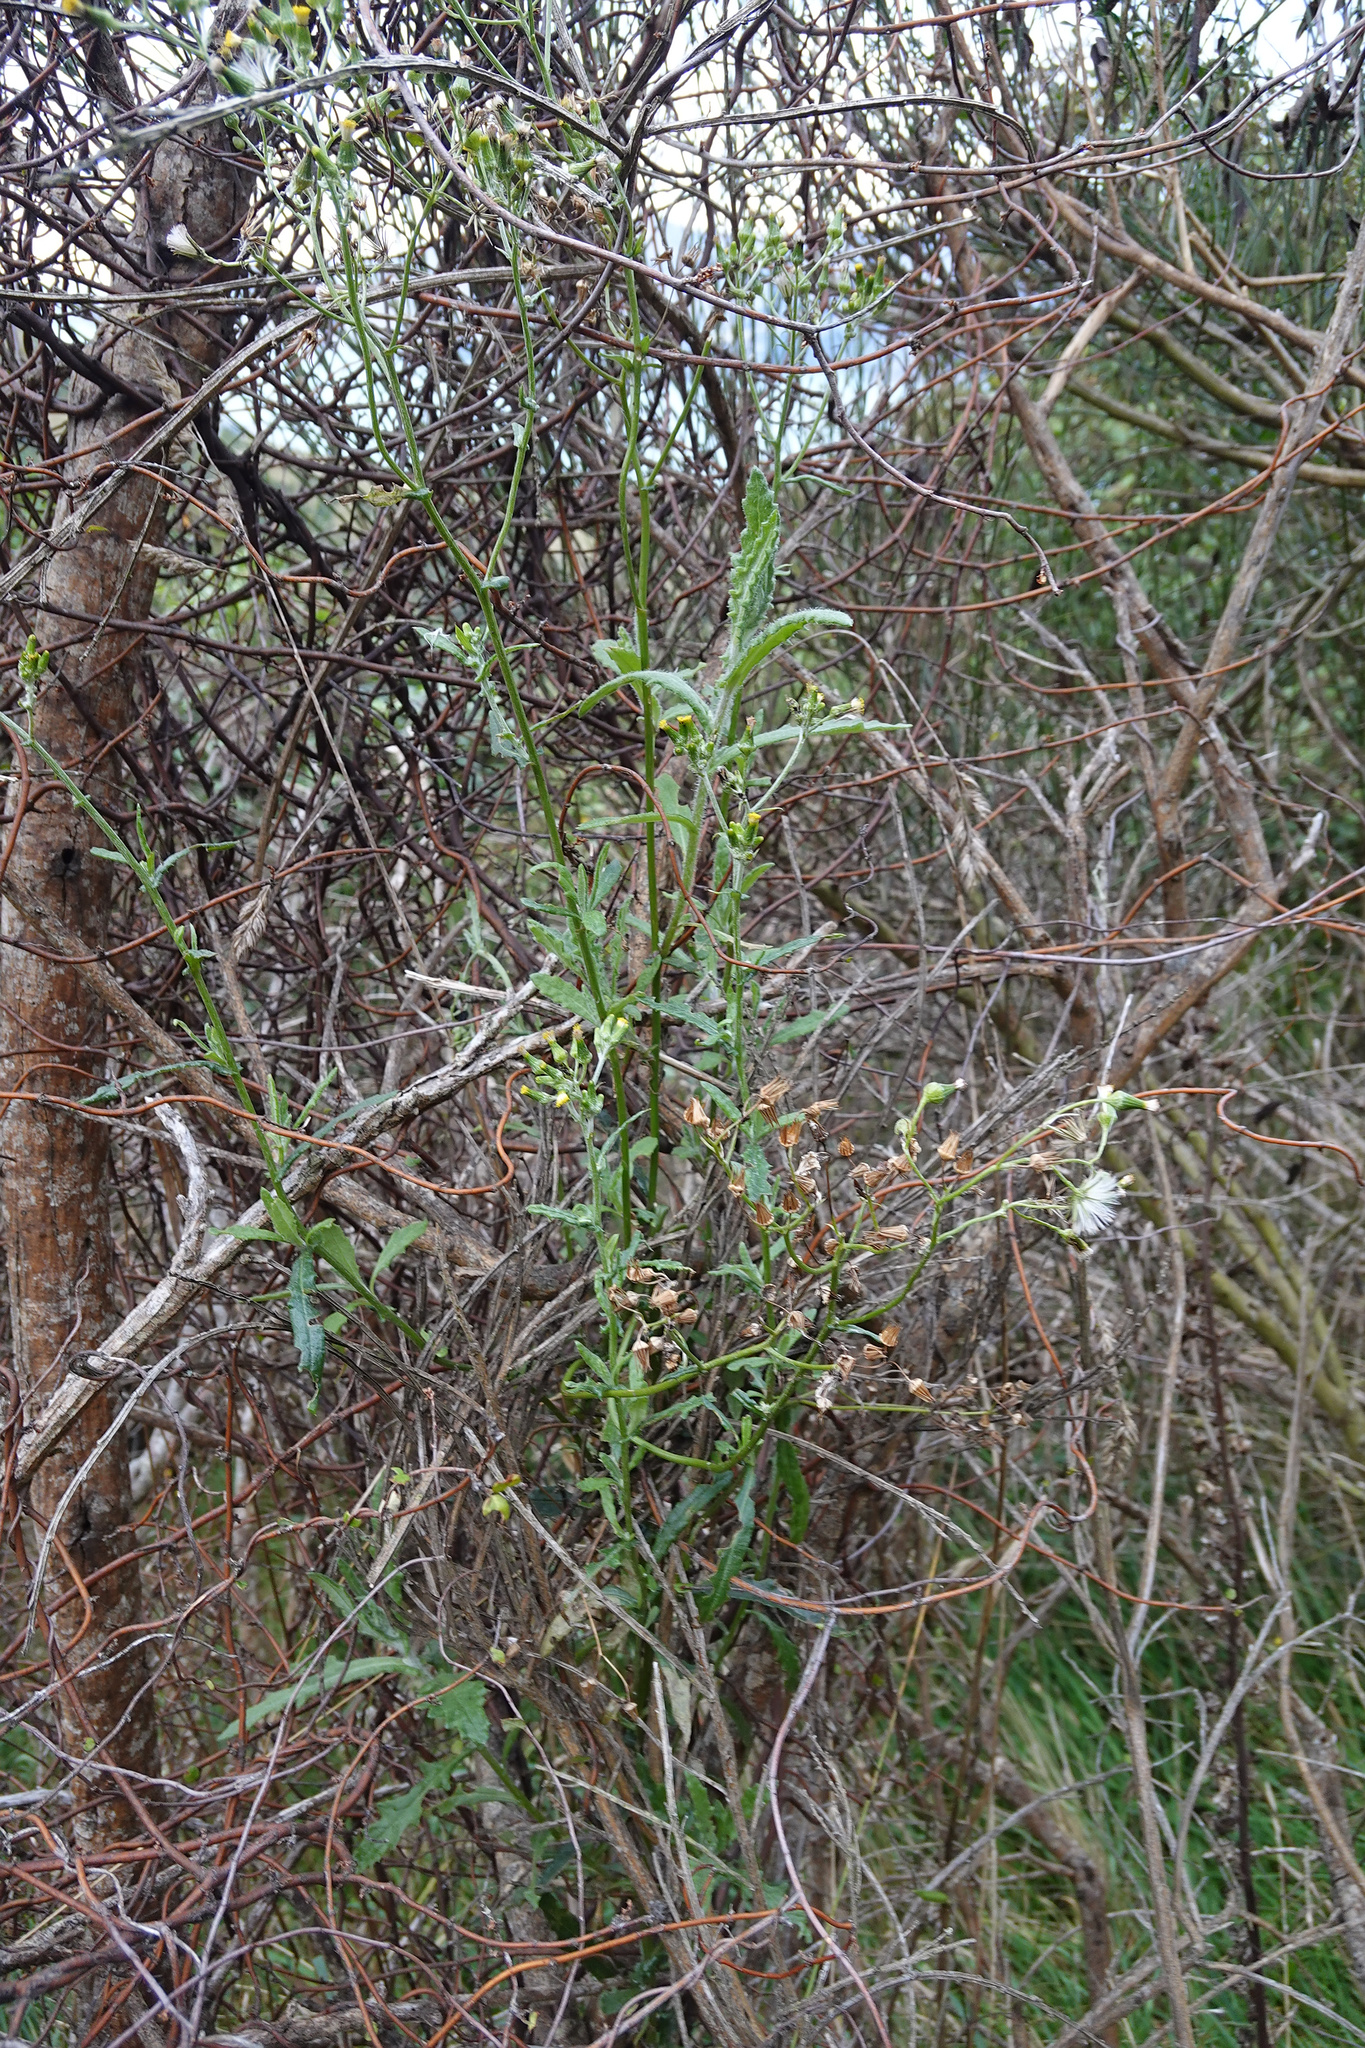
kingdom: Plantae
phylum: Tracheophyta
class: Magnoliopsida
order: Asterales
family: Asteraceae
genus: Senecio
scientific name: Senecio glomeratus
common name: Cutleaf burnweed
